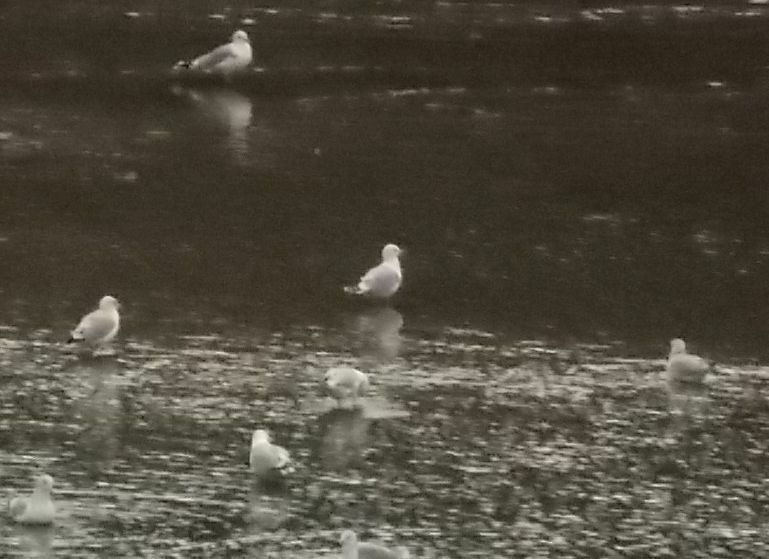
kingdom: Animalia
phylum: Chordata
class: Aves
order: Charadriiformes
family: Laridae
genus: Larus
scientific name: Larus canus
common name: Mew gull
